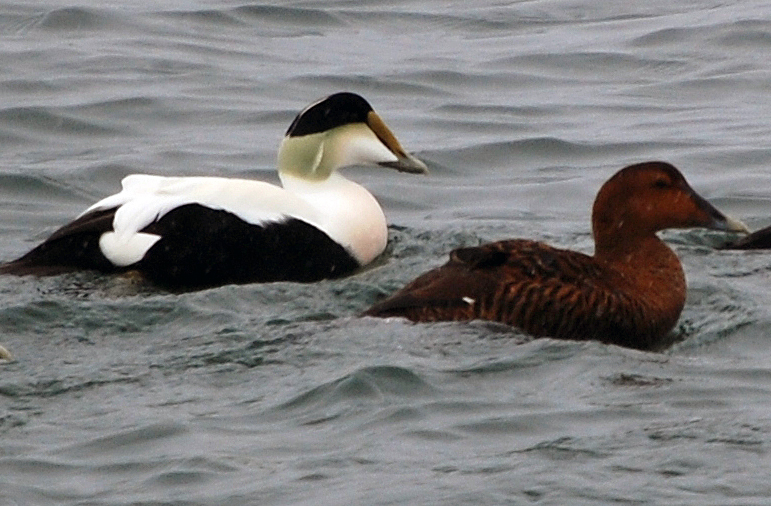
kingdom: Animalia
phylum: Chordata
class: Aves
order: Anseriformes
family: Anatidae
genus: Somateria
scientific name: Somateria mollissima
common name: Common eider
